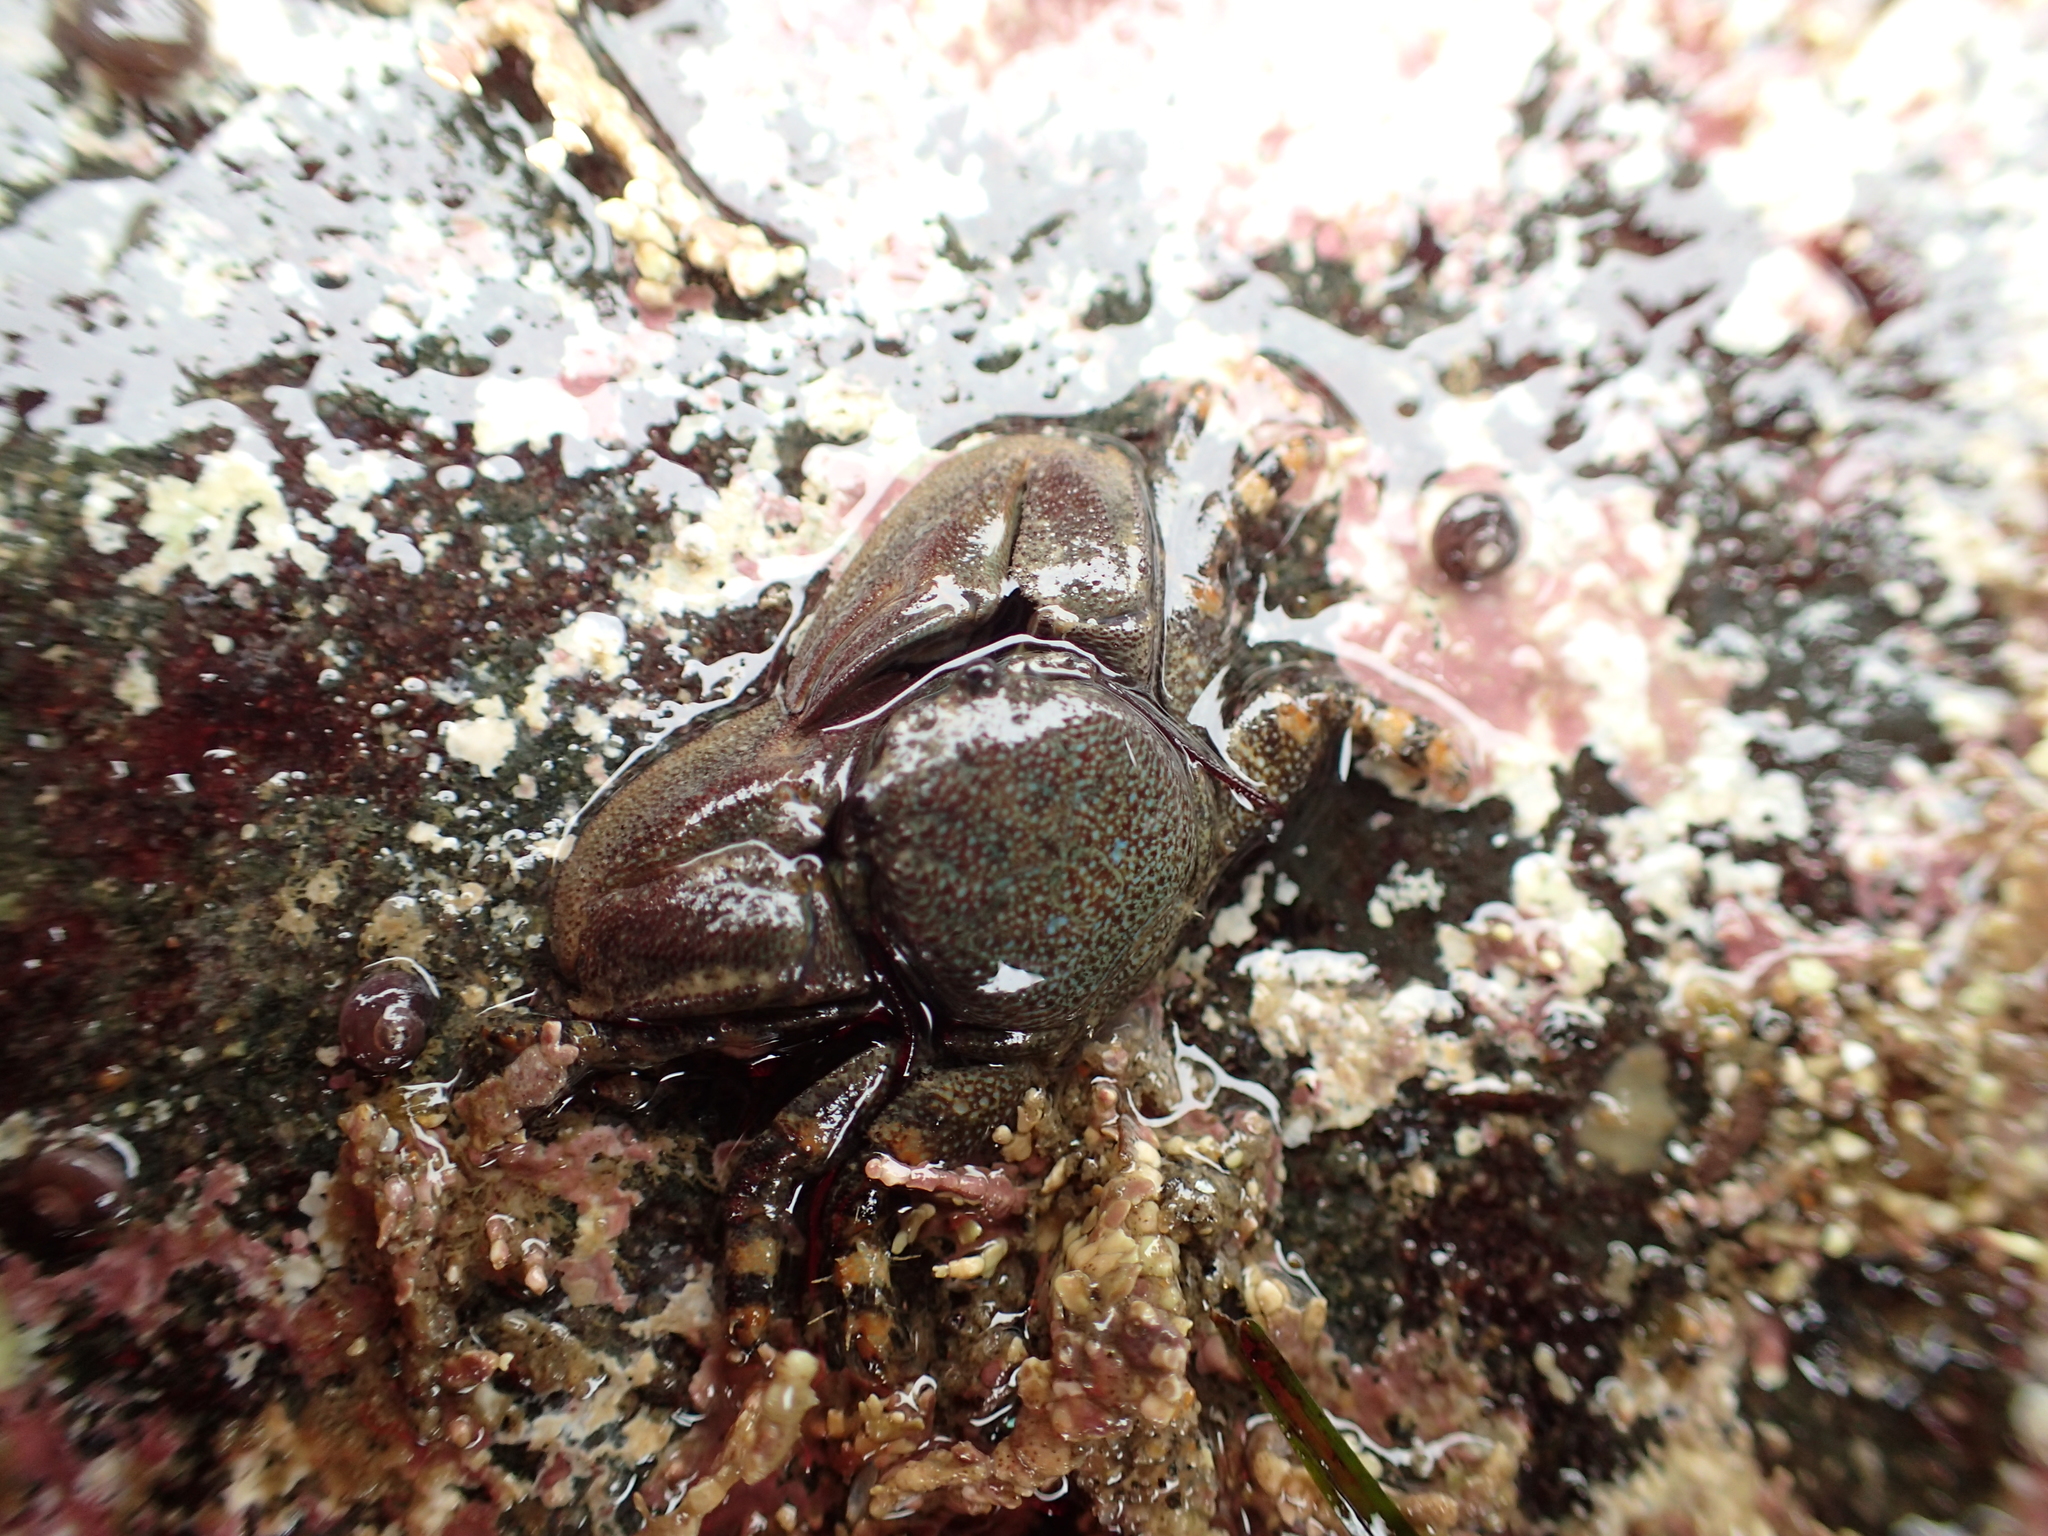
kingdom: Animalia
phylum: Arthropoda
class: Malacostraca
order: Decapoda
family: Porcellanidae
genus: Petrolisthes
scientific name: Petrolisthes eriomerus
